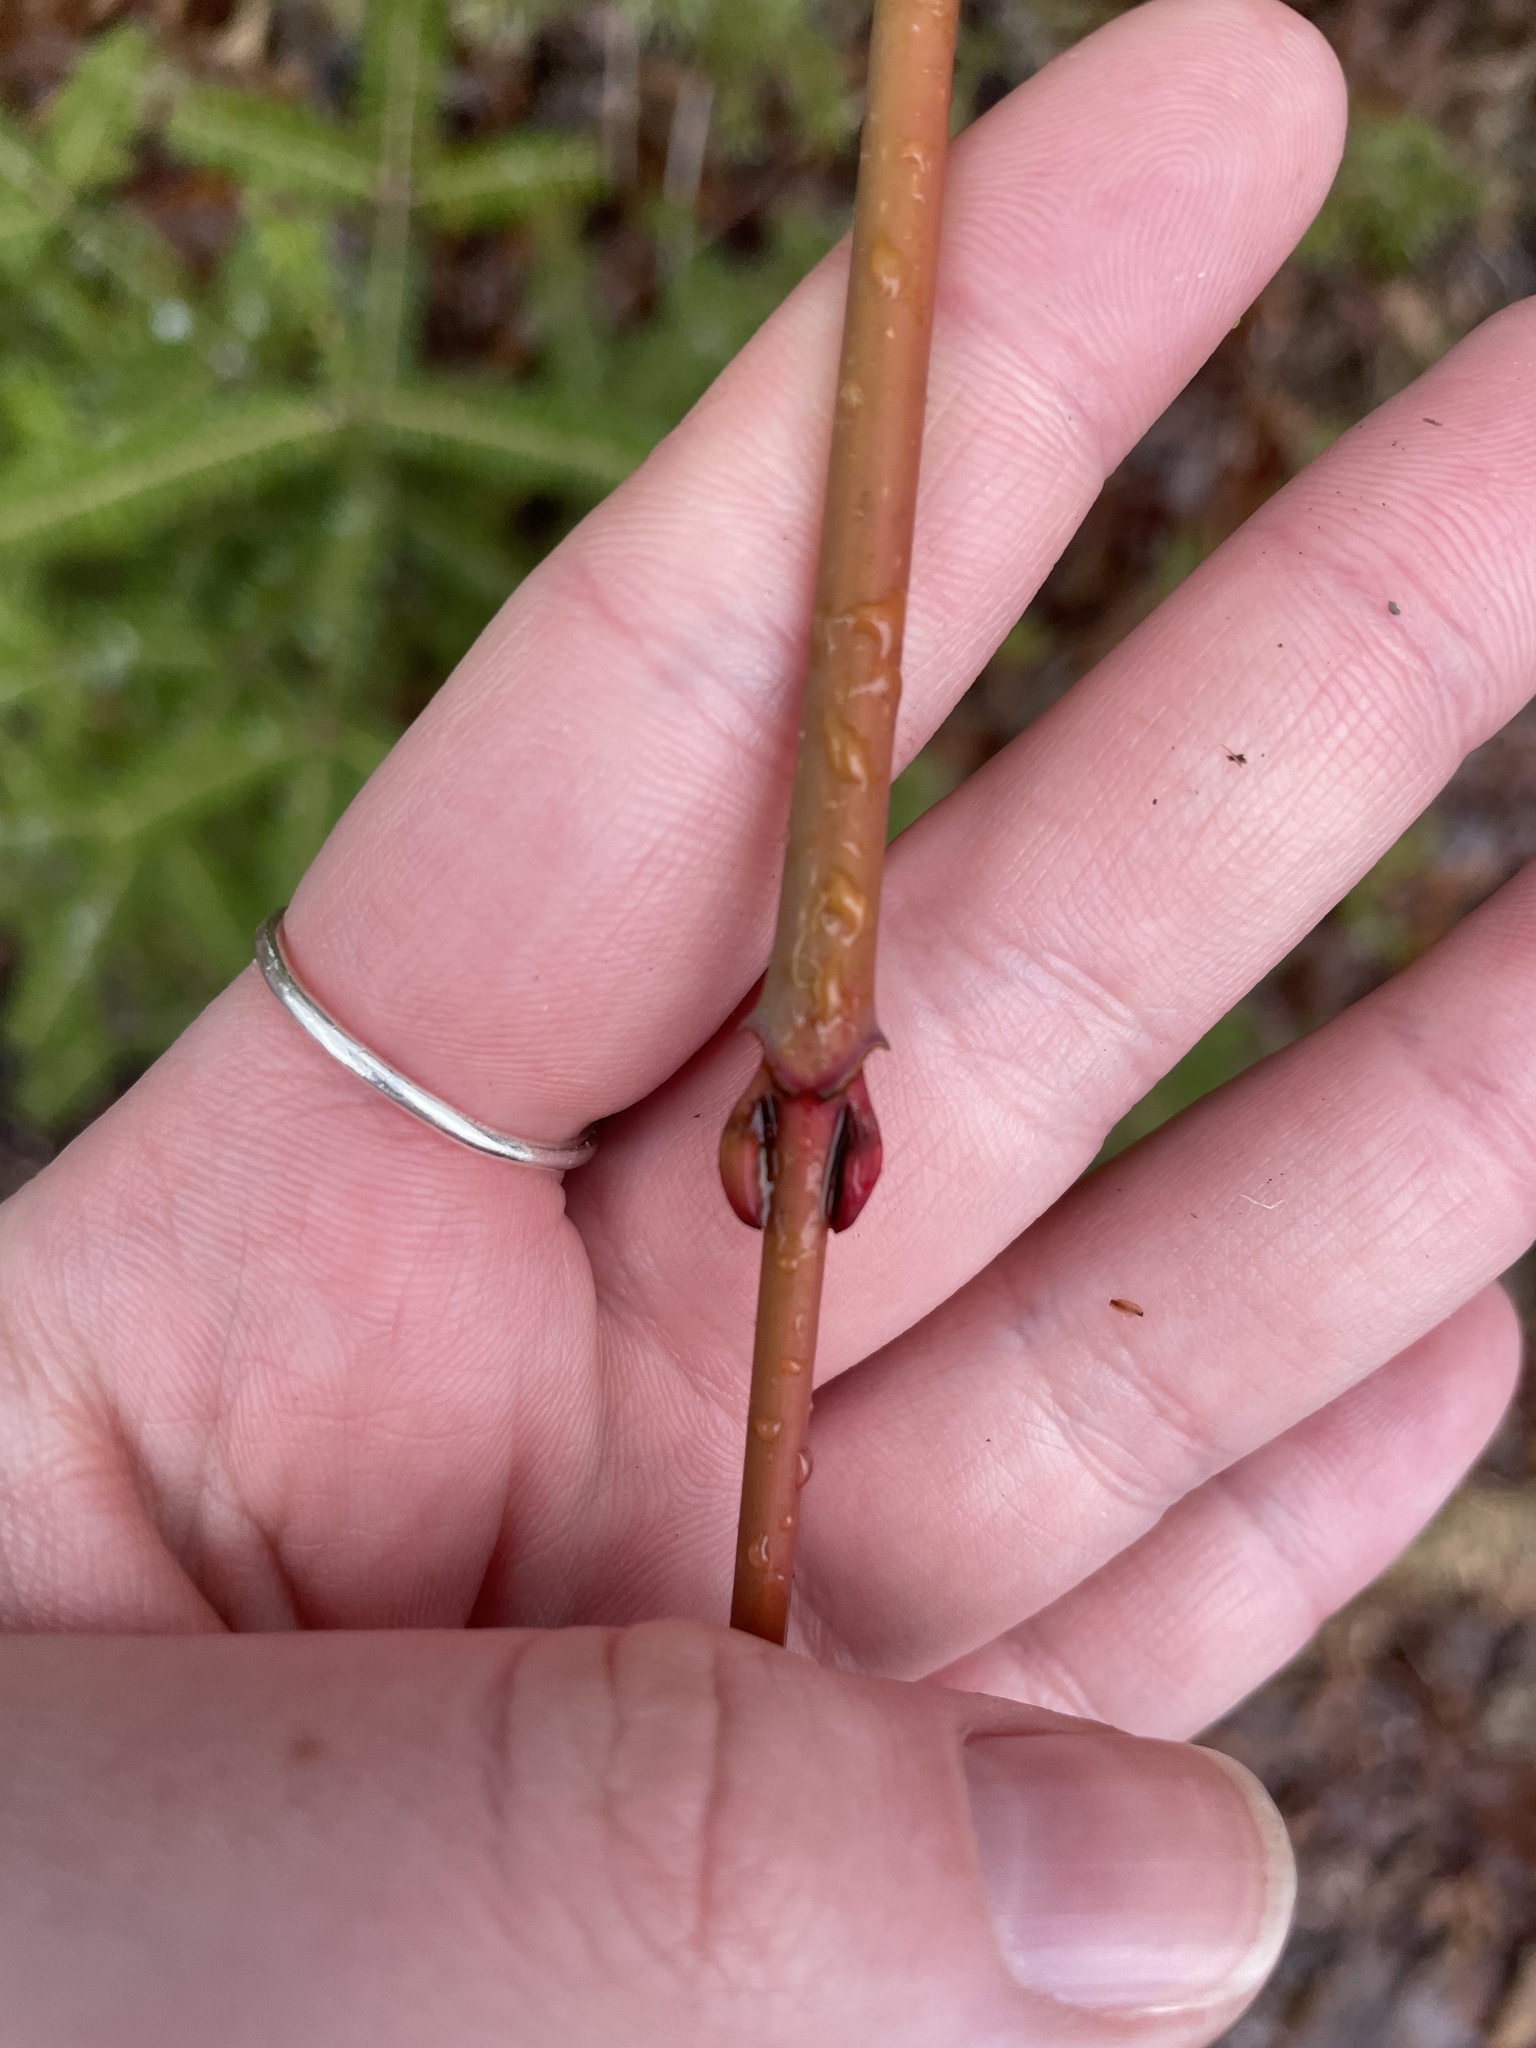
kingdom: Plantae
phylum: Tracheophyta
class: Magnoliopsida
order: Sapindales
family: Sapindaceae
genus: Acer
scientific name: Acer pensylvanicum
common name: Moosewood
